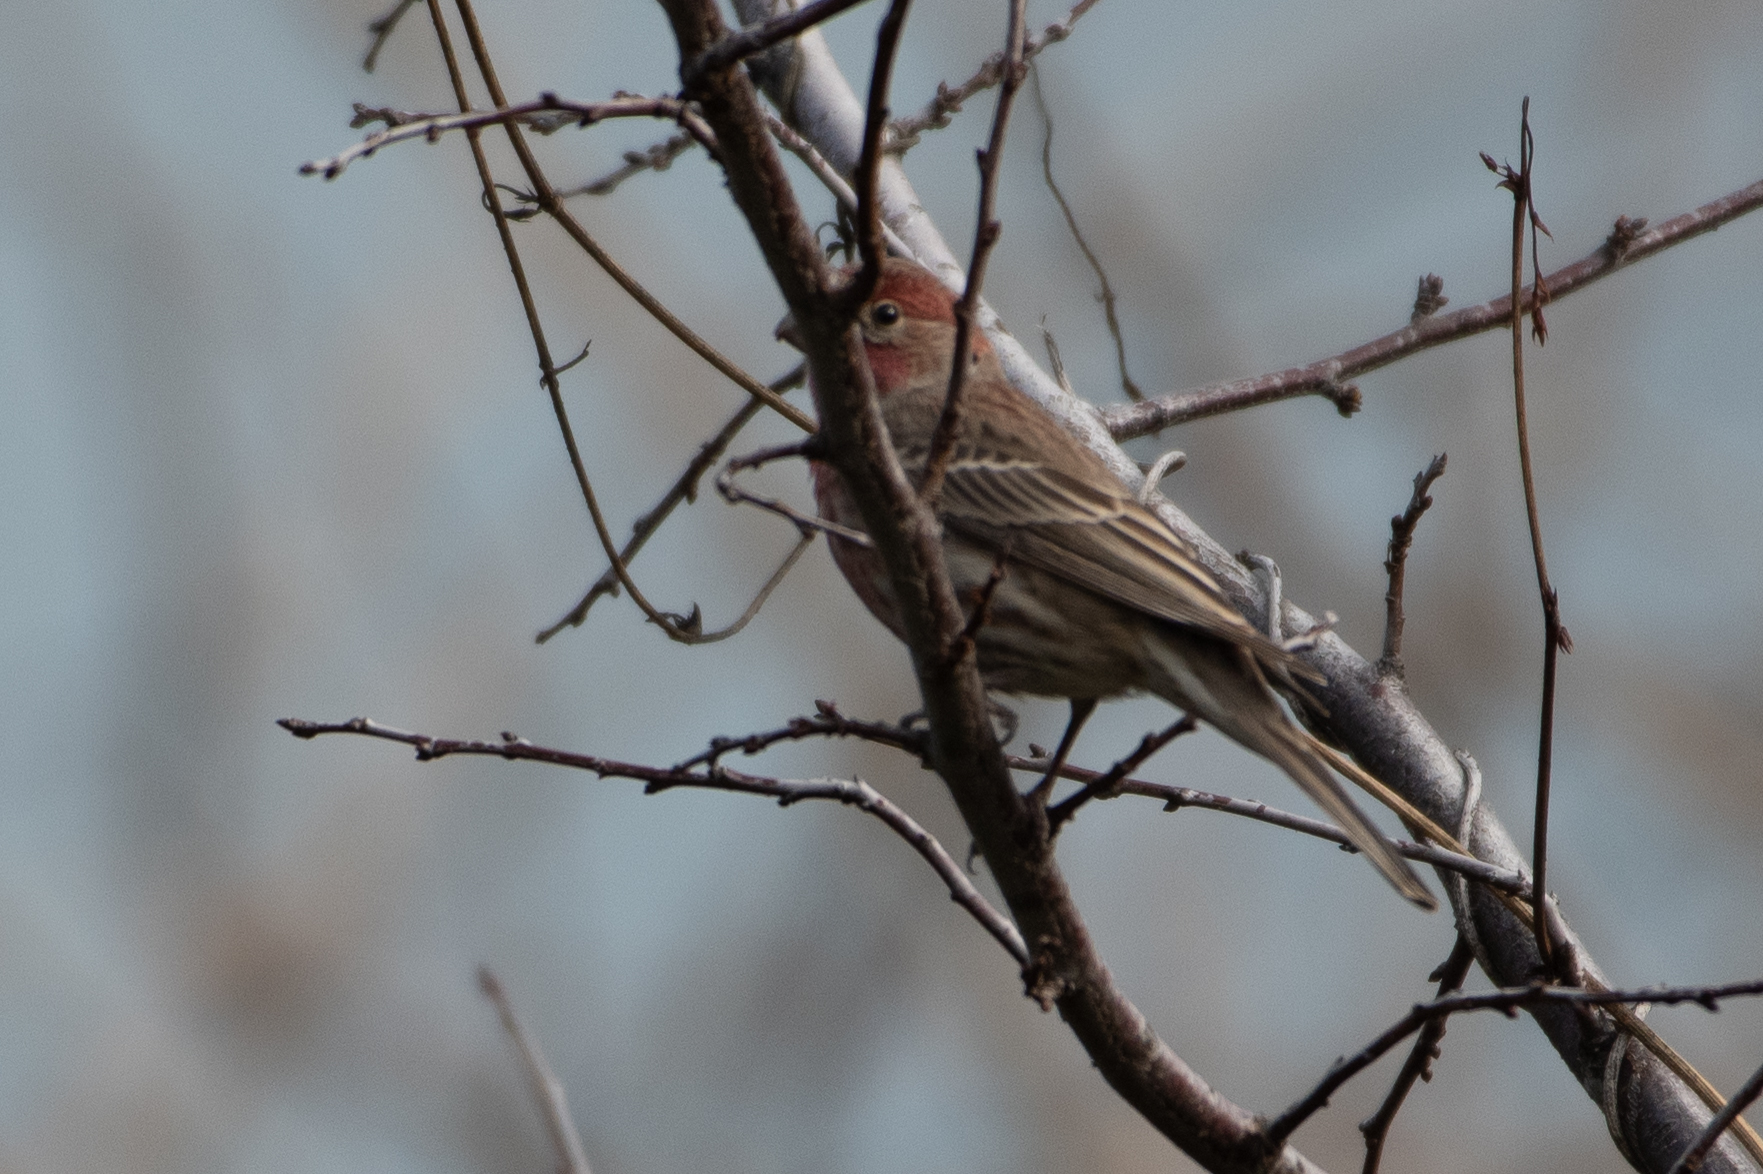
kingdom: Animalia
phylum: Chordata
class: Aves
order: Passeriformes
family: Fringillidae
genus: Haemorhous
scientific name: Haemorhous mexicanus
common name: House finch
